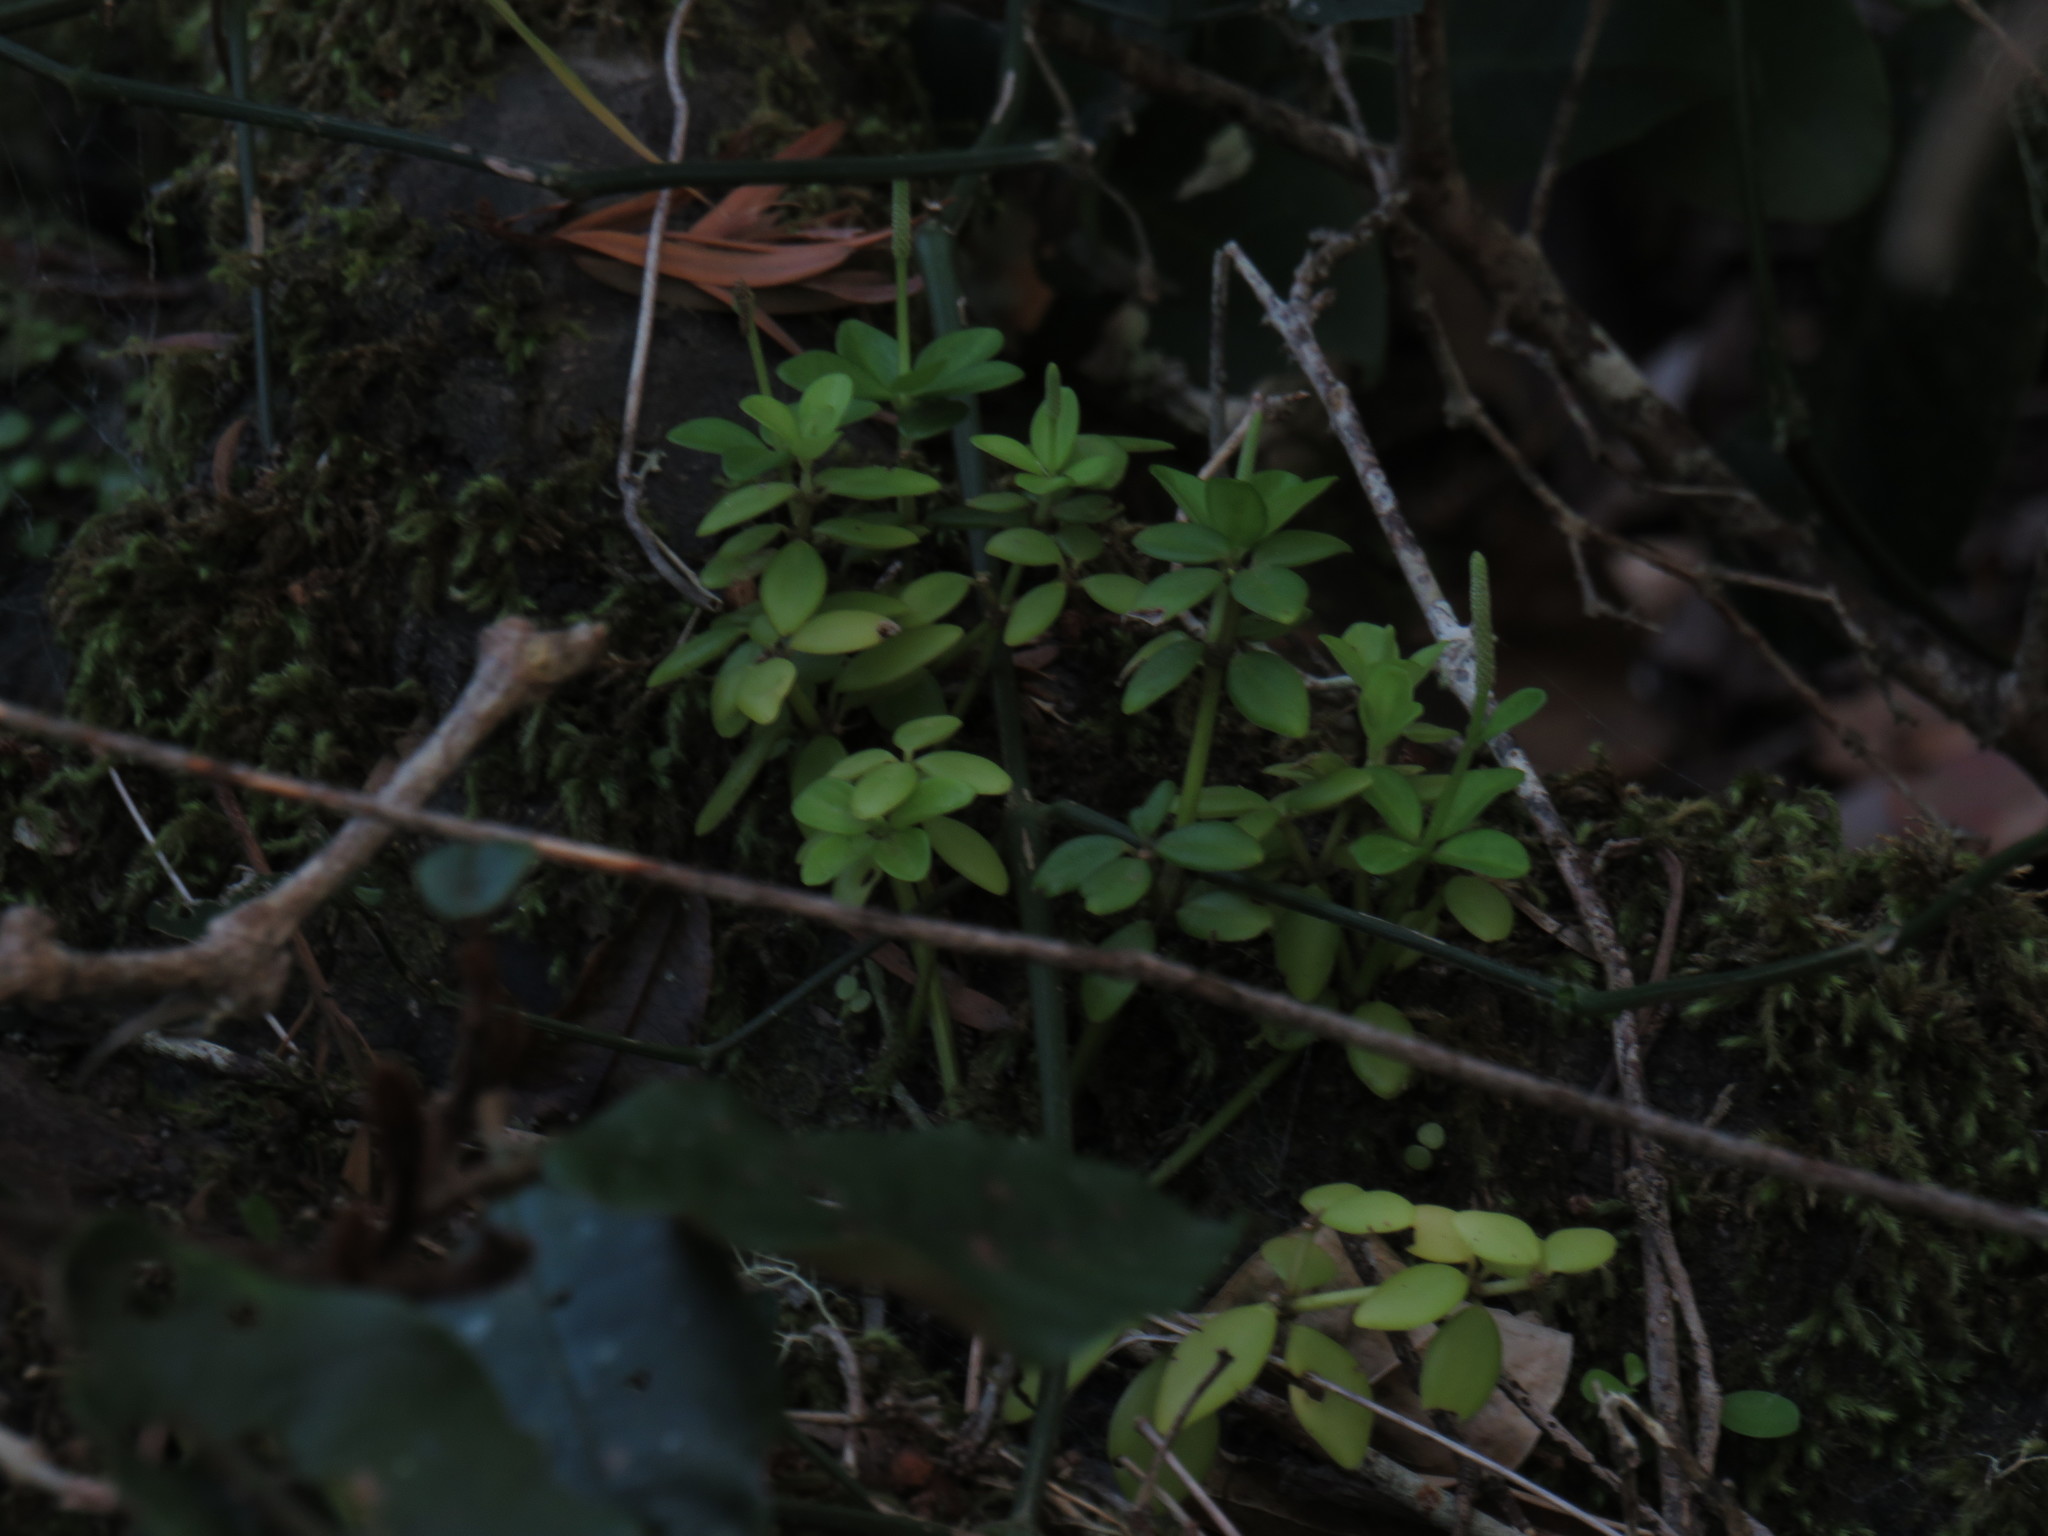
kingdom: Plantae
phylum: Tracheophyta
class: Magnoliopsida
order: Piperales
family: Piperaceae
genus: Peperomia
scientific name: Peperomia tetraphylla
